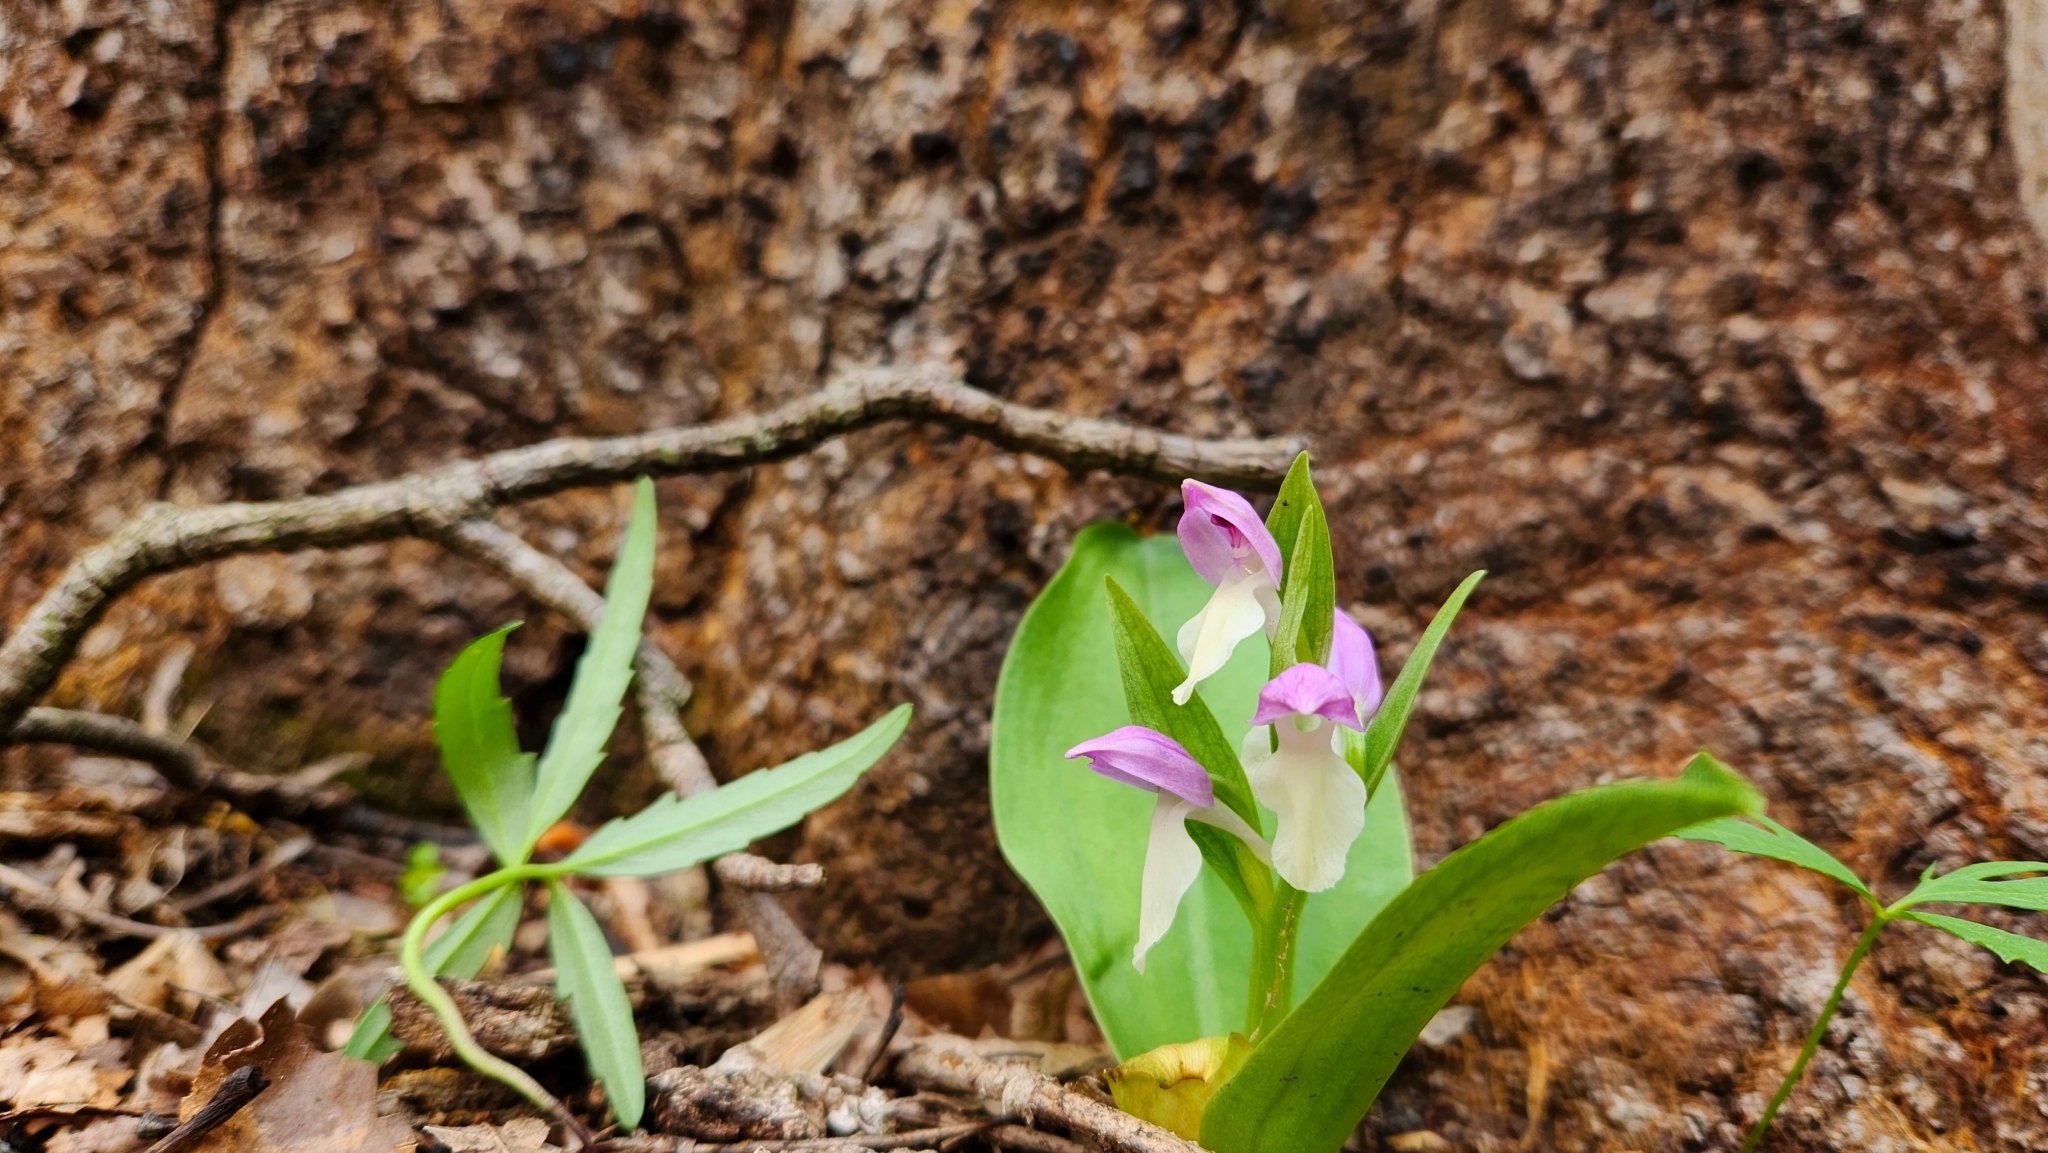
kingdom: Plantae
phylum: Tracheophyta
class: Liliopsida
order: Asparagales
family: Orchidaceae
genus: Galearis
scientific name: Galearis spectabilis
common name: Purple-hooded orchis
